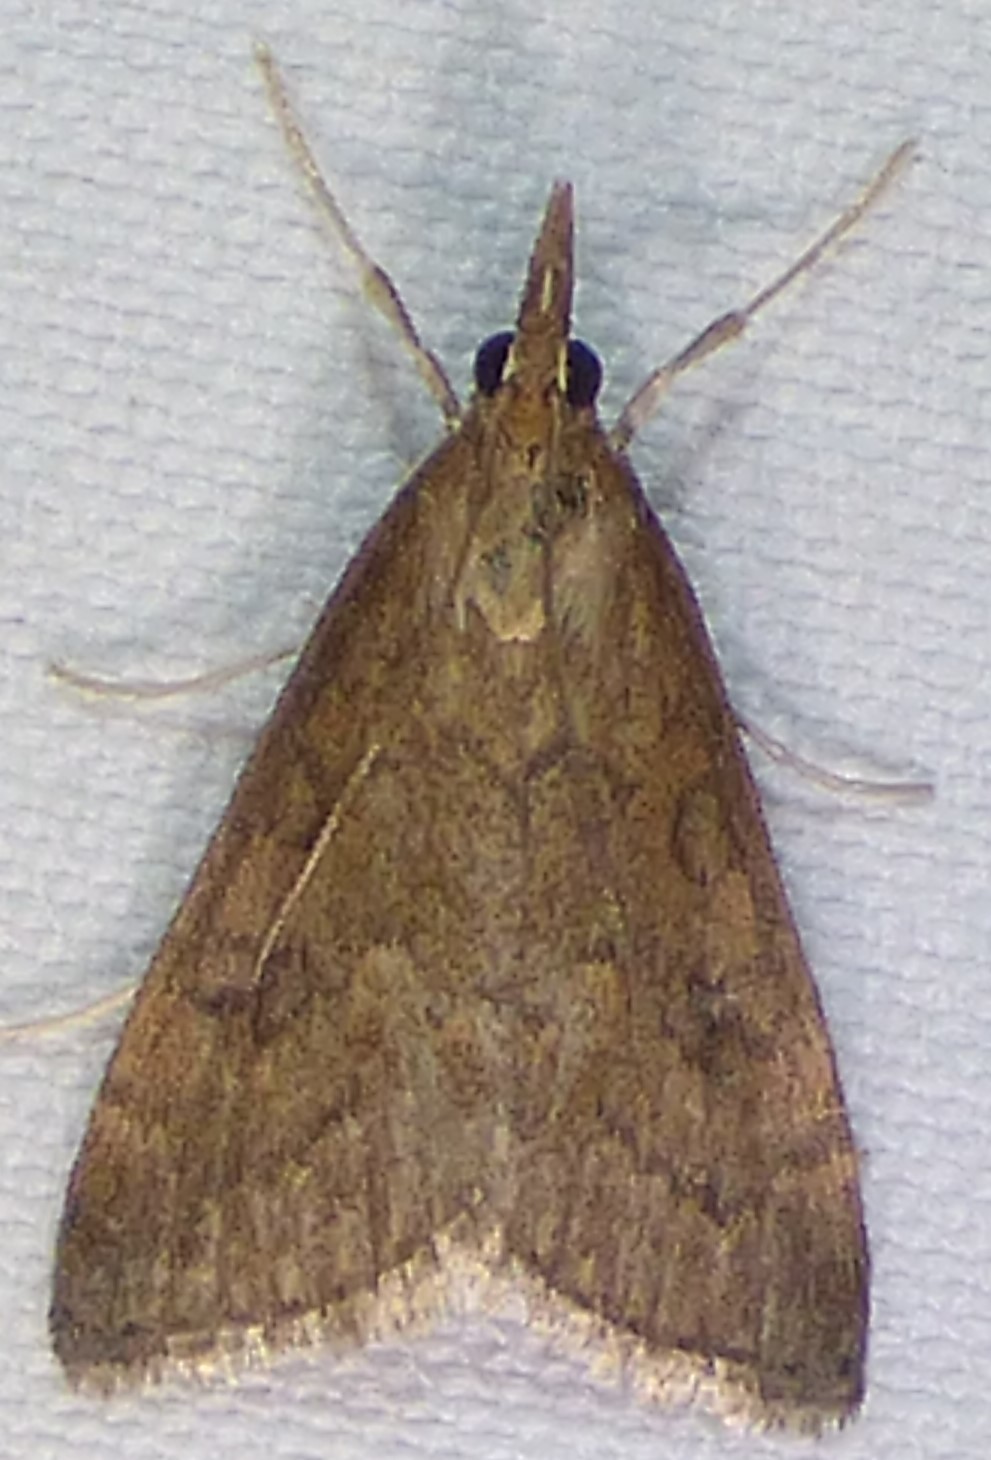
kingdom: Animalia
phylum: Arthropoda
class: Insecta
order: Lepidoptera
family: Crambidae
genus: Udea
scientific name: Udea rubigalis
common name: Celery leaftier moth
